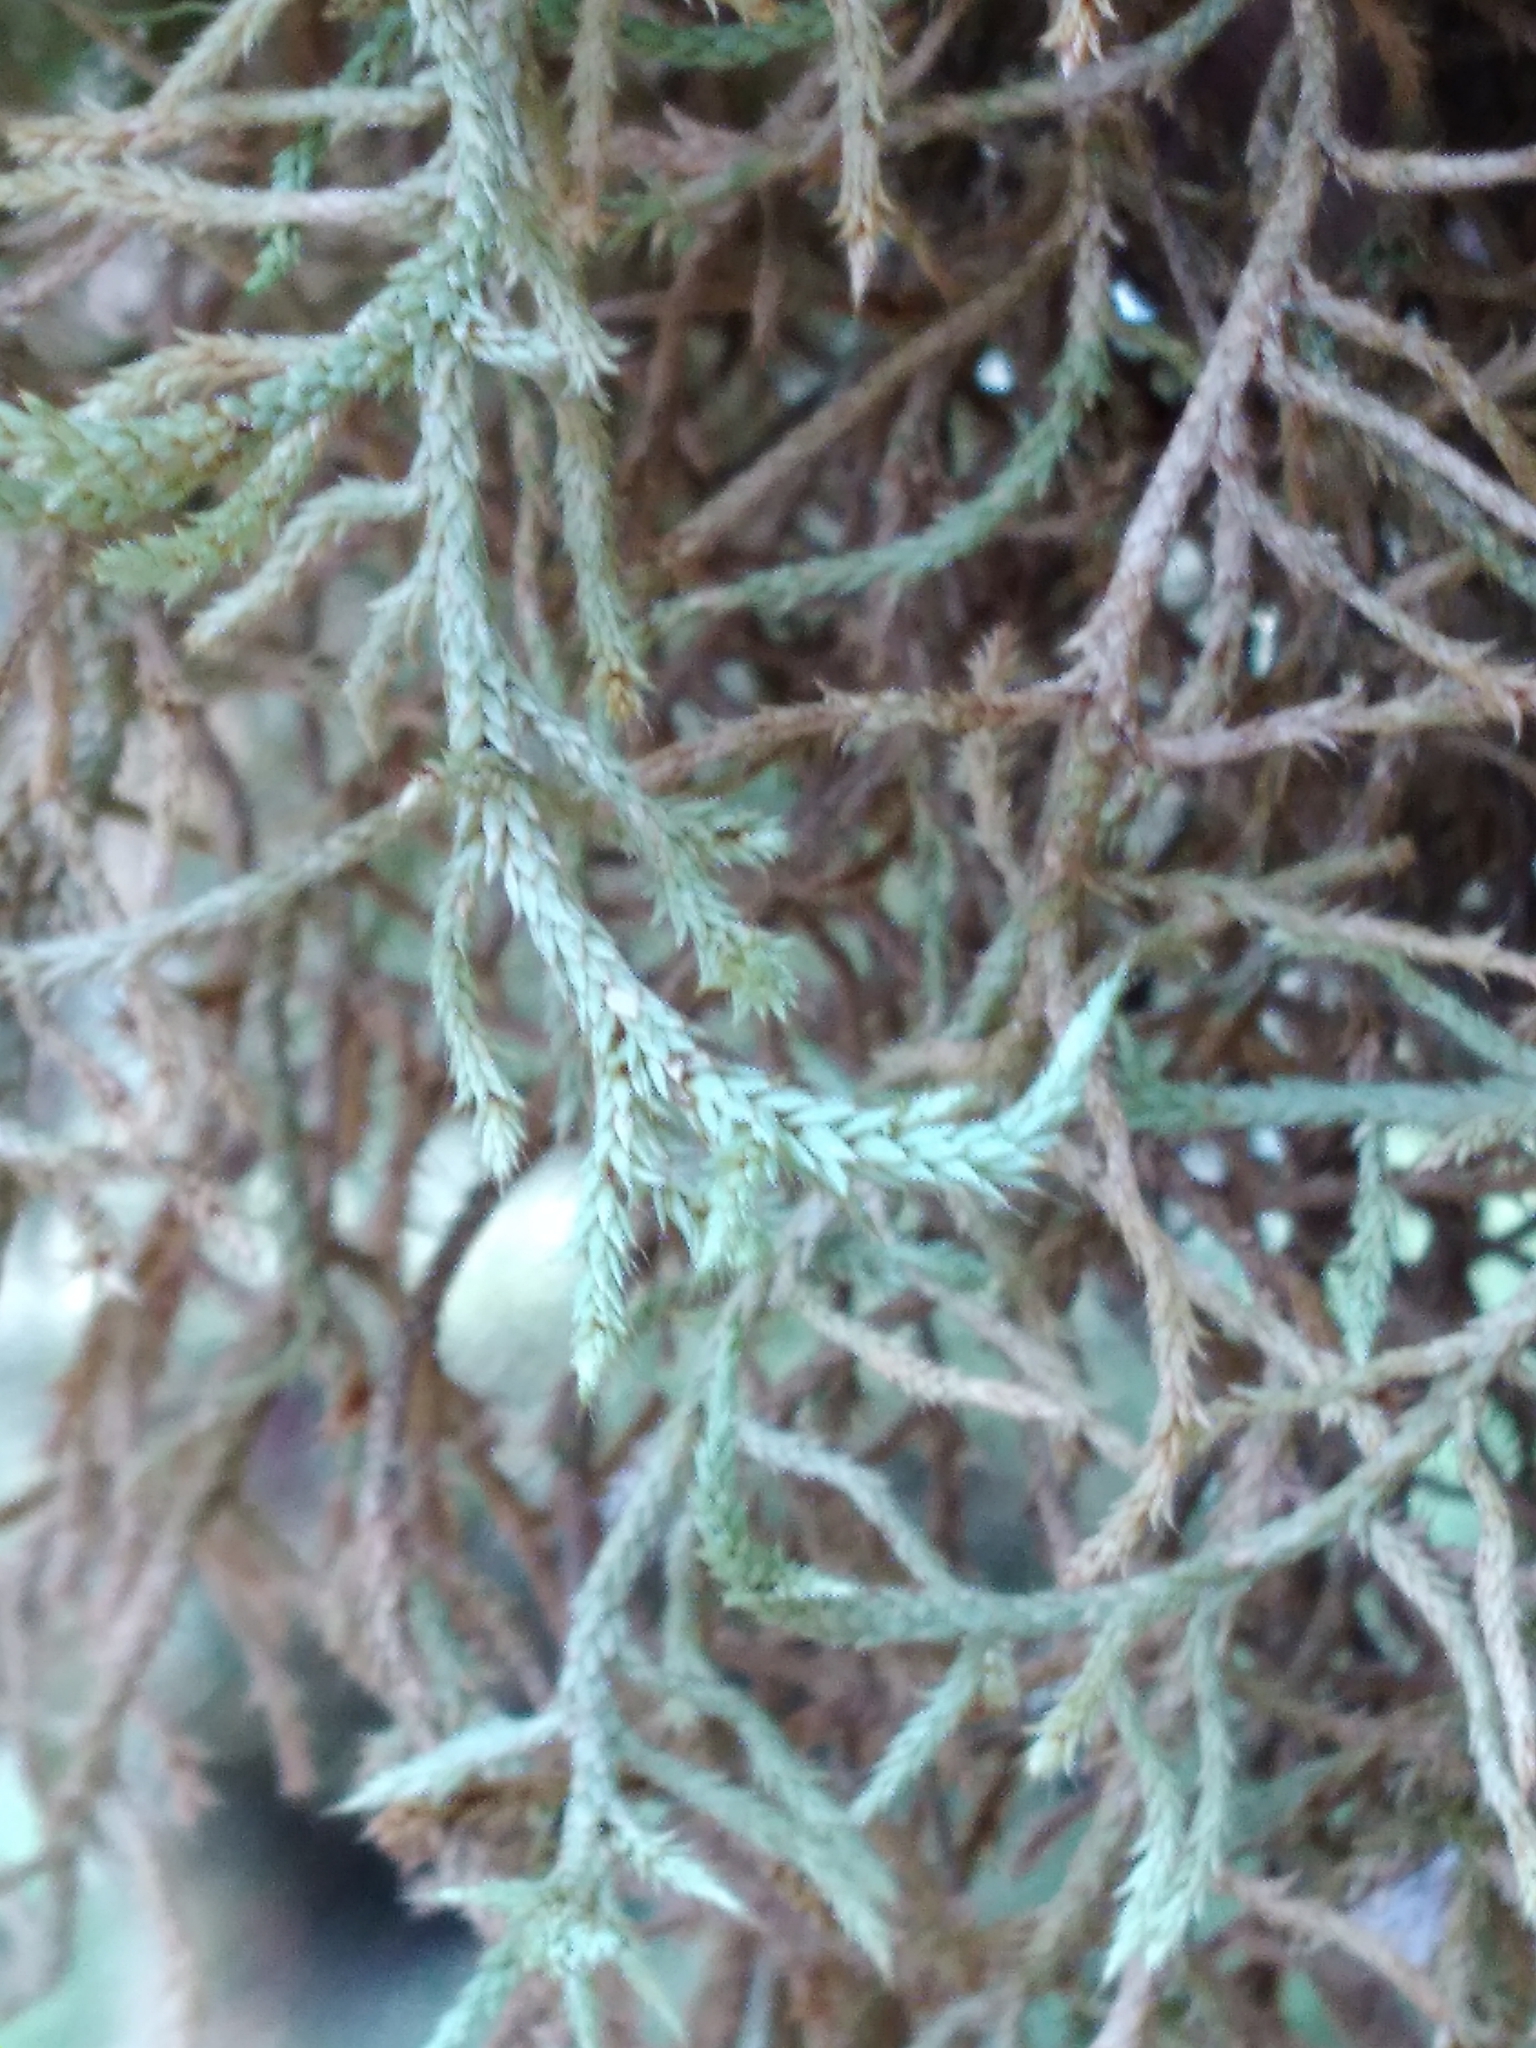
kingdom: Plantae
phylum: Bryophyta
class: Bryopsida
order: Hedwigiales
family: Hedwigiaceae
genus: Rhacocarpus
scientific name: Rhacocarpus purpurascens
